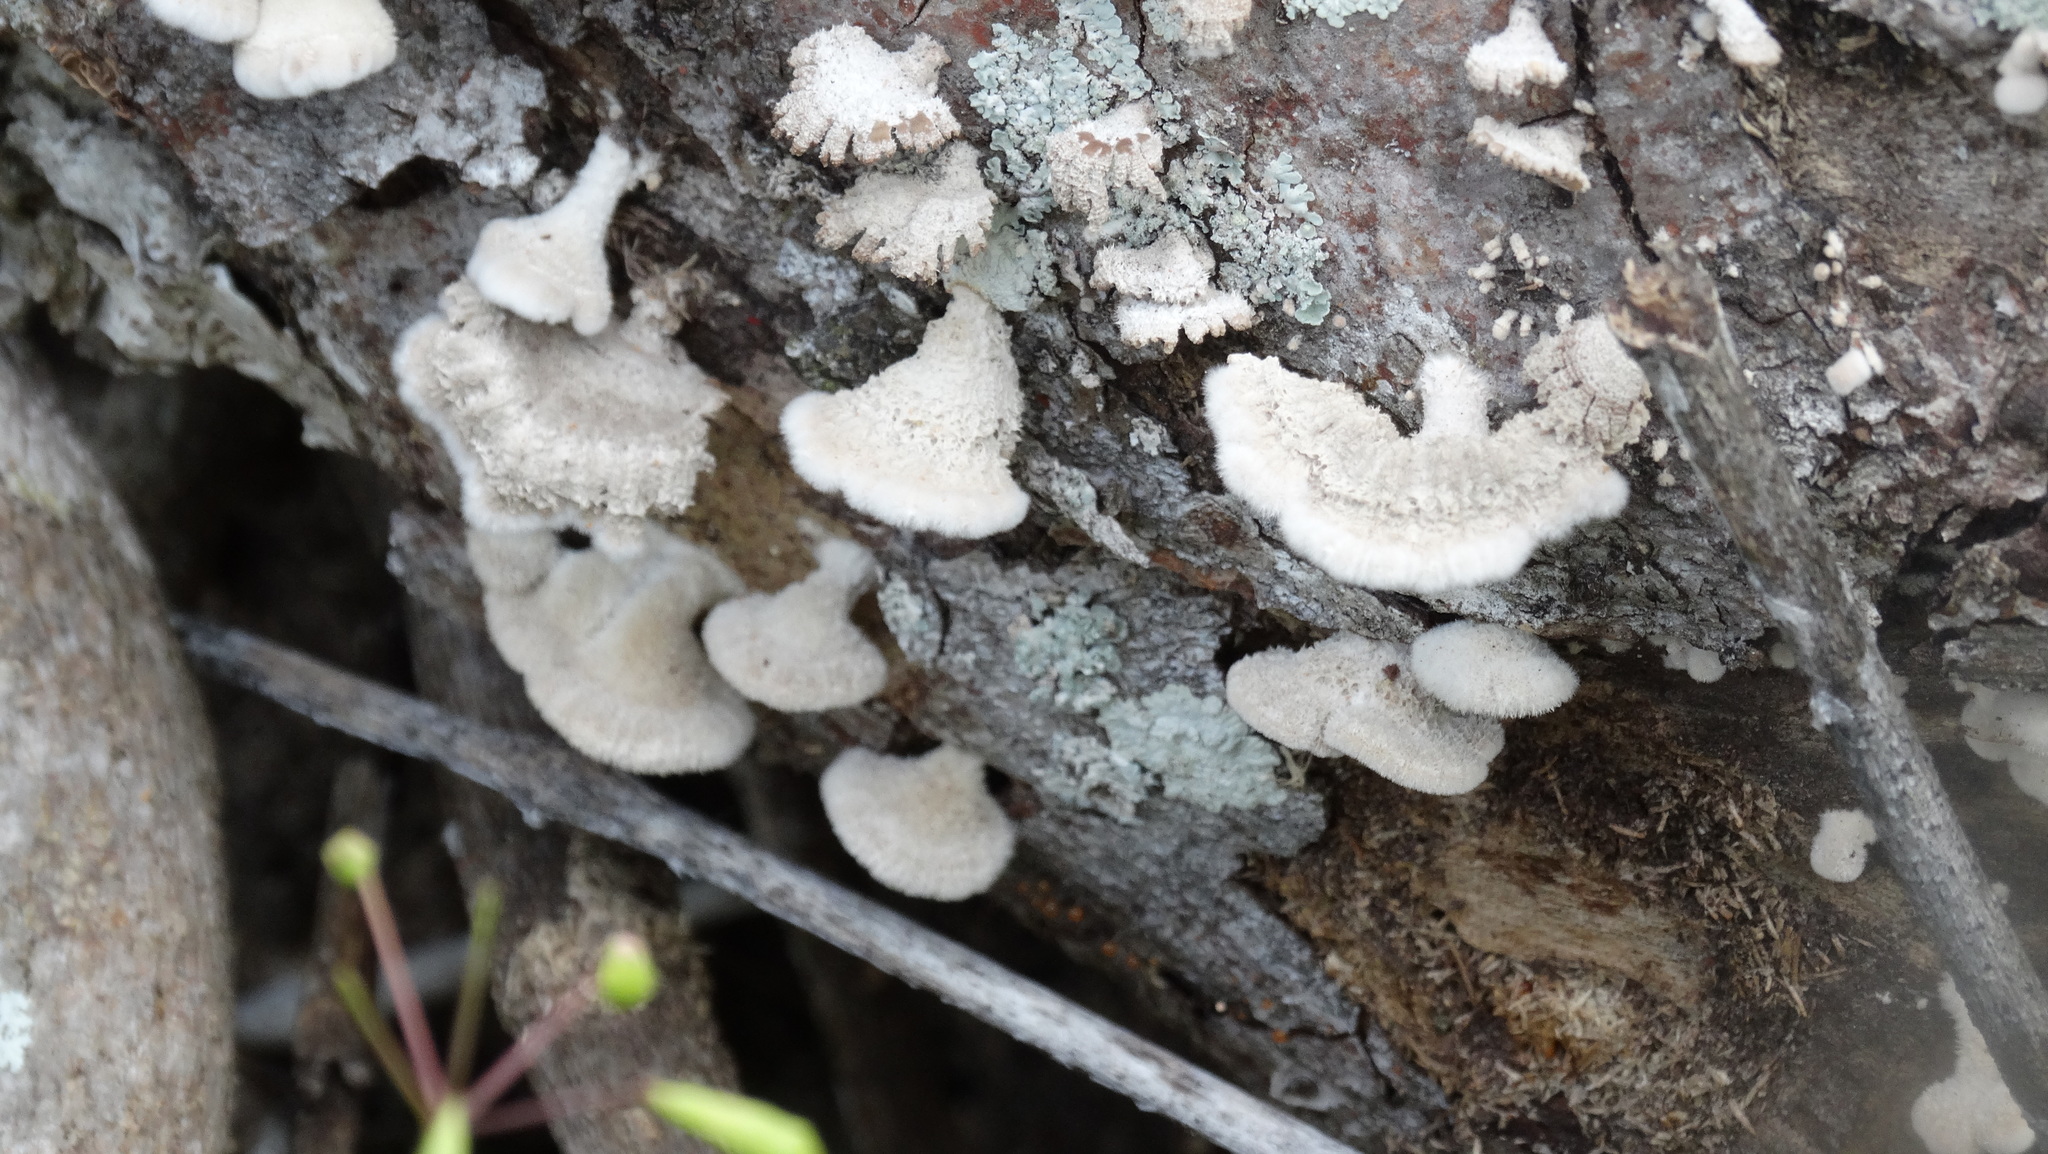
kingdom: Fungi
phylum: Basidiomycota
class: Agaricomycetes
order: Agaricales
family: Schizophyllaceae
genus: Schizophyllum
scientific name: Schizophyllum commune
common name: Common porecrust
